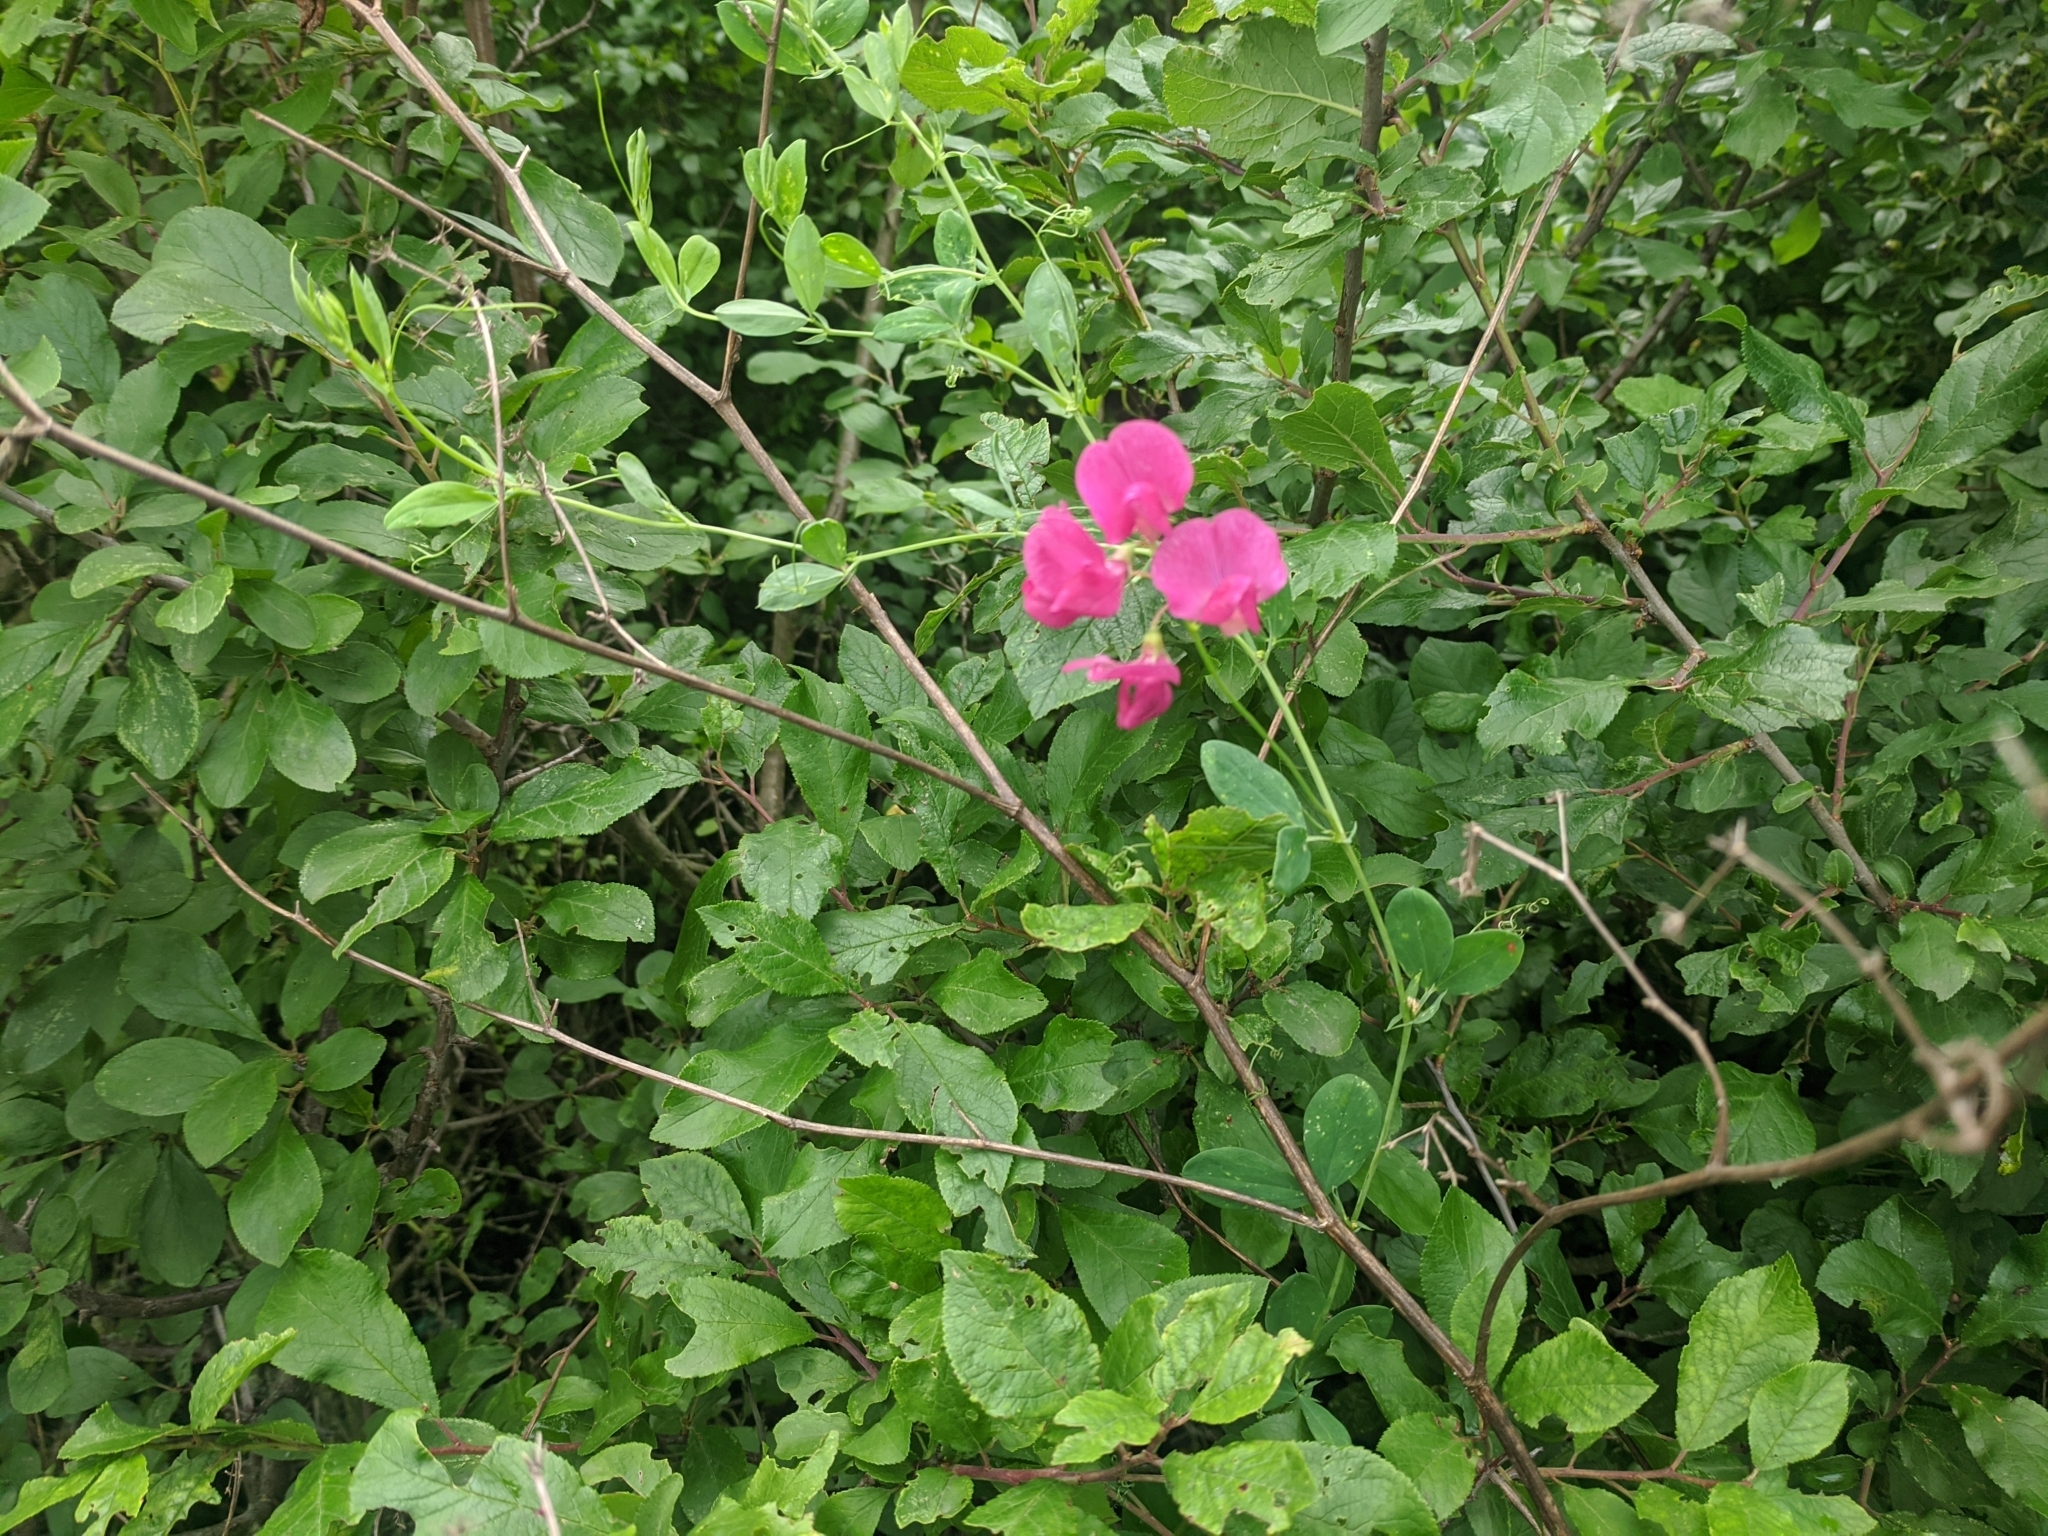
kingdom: Plantae
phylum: Tracheophyta
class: Magnoliopsida
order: Fabales
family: Fabaceae
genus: Lathyrus
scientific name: Lathyrus tuberosus
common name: Tuberous pea
